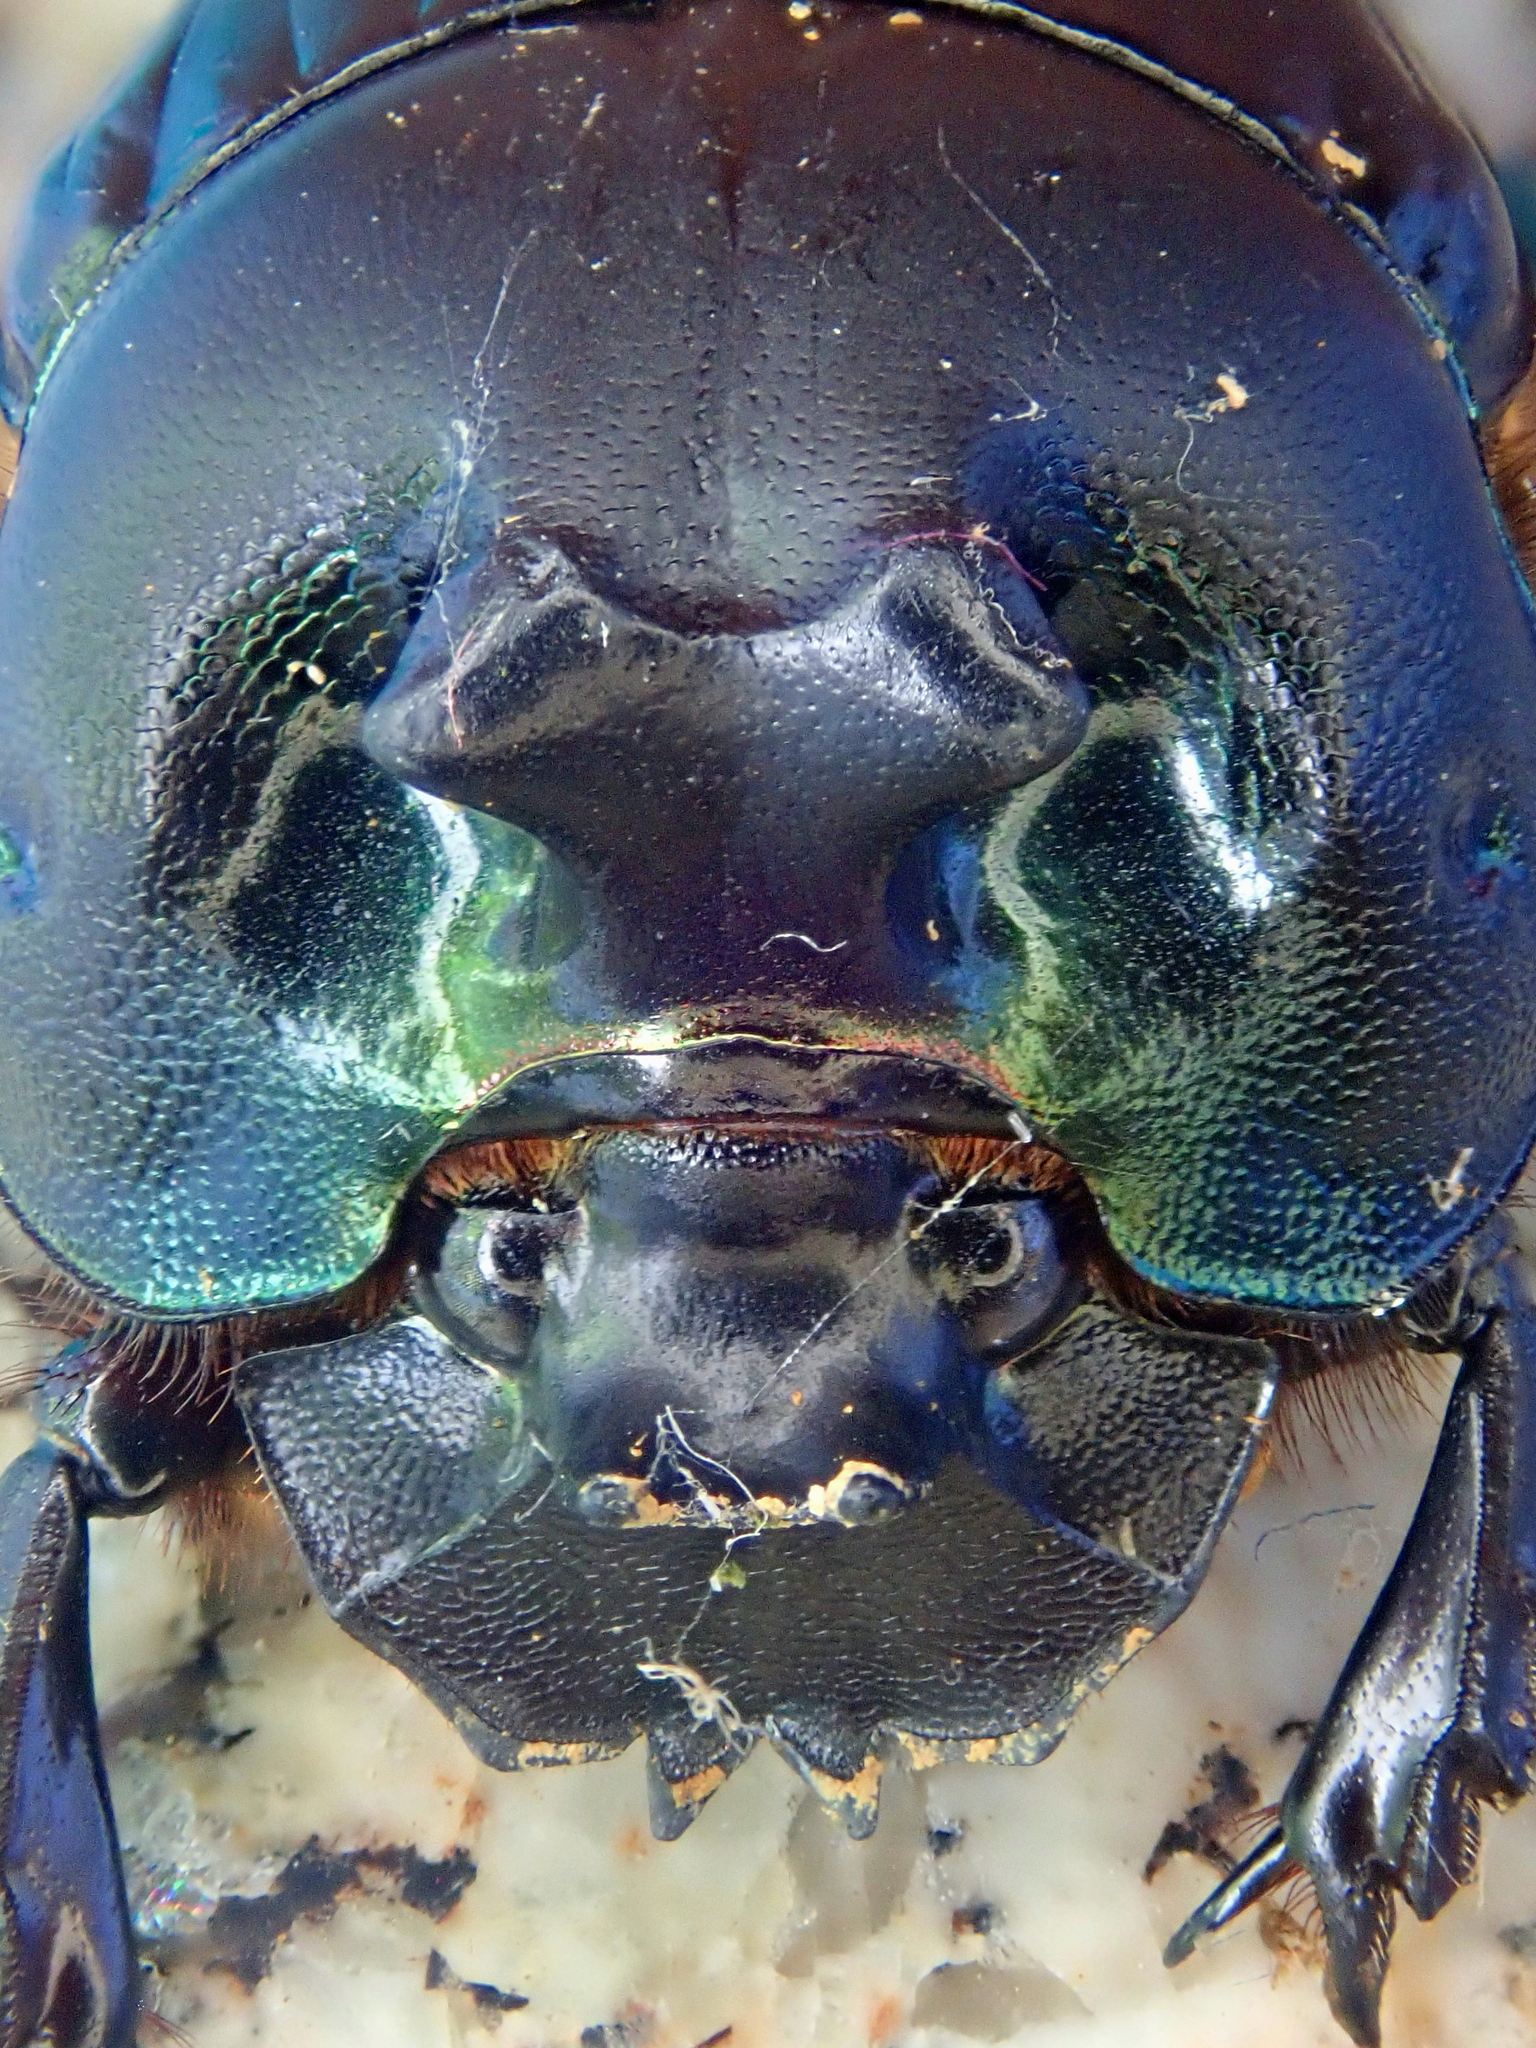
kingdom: Animalia
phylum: Arthropoda
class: Insecta
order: Coleoptera
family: Scarabaeidae
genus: Coprophanaeus
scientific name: Coprophanaeus dardanus
